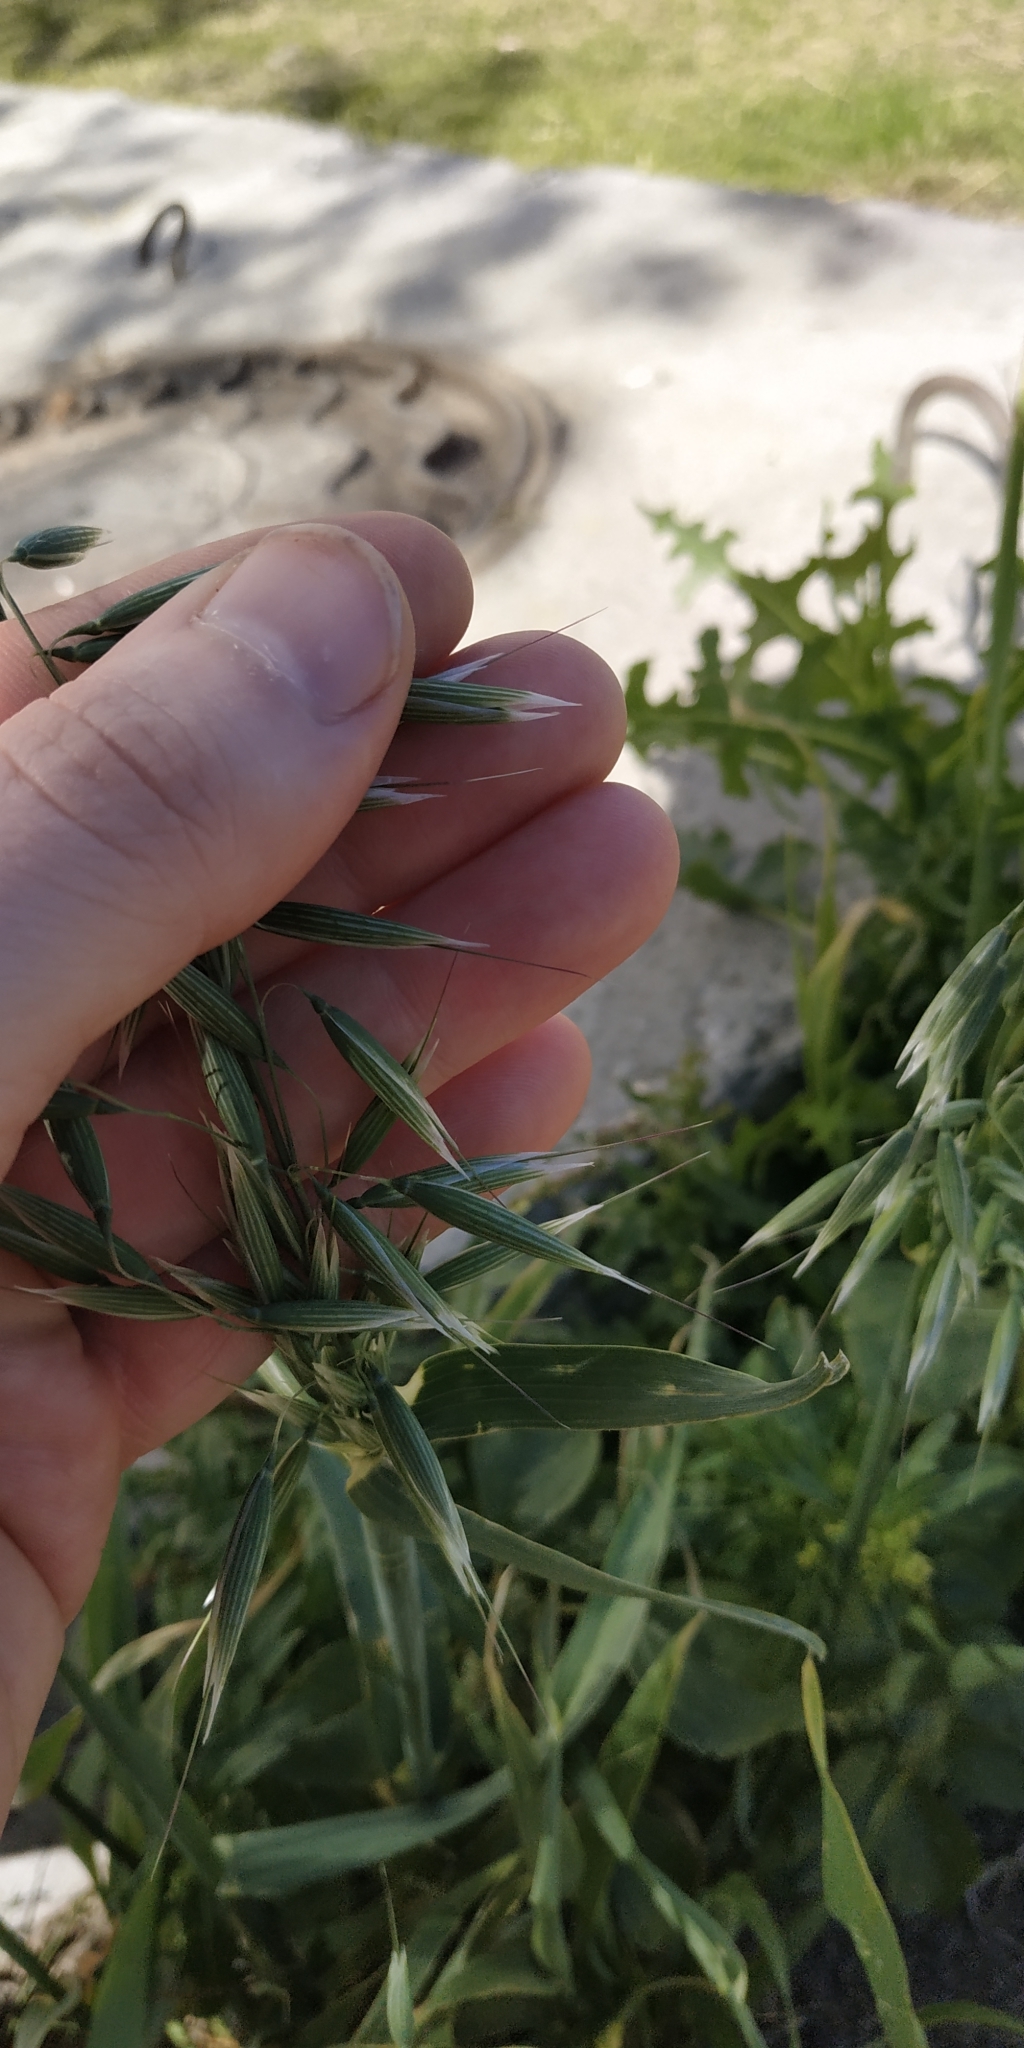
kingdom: Plantae
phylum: Tracheophyta
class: Liliopsida
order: Poales
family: Poaceae
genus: Avena
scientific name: Avena fatua
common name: Wild oat
